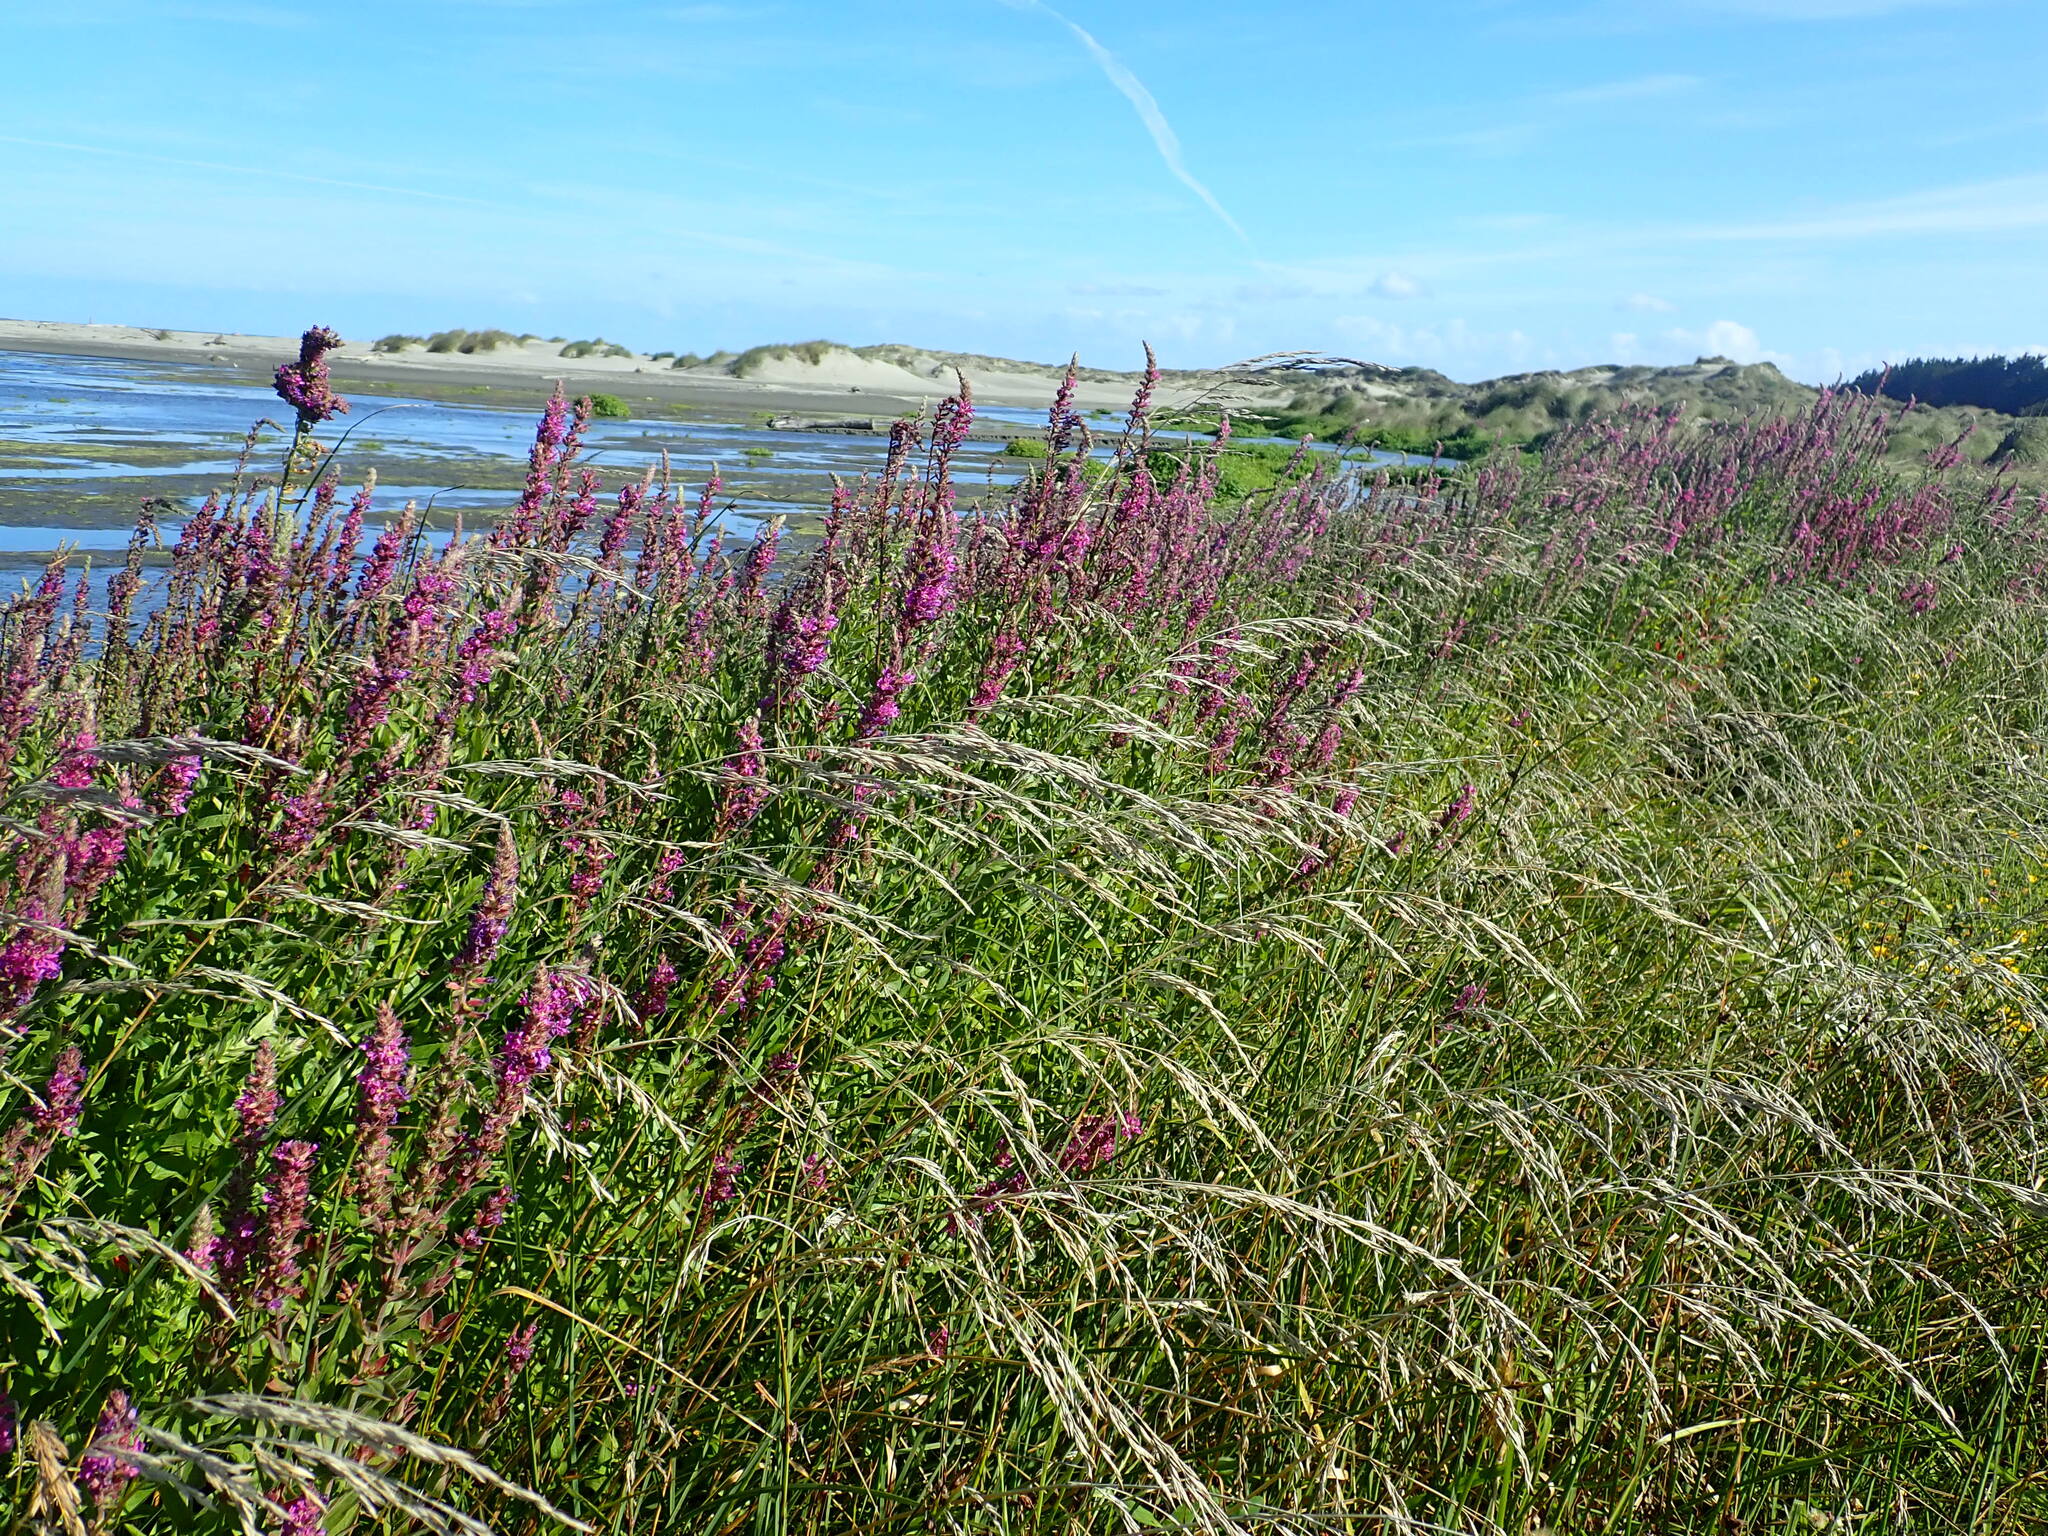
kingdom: Plantae
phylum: Tracheophyta
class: Magnoliopsida
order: Myrtales
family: Lythraceae
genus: Lythrum
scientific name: Lythrum salicaria
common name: Purple loosestrife
